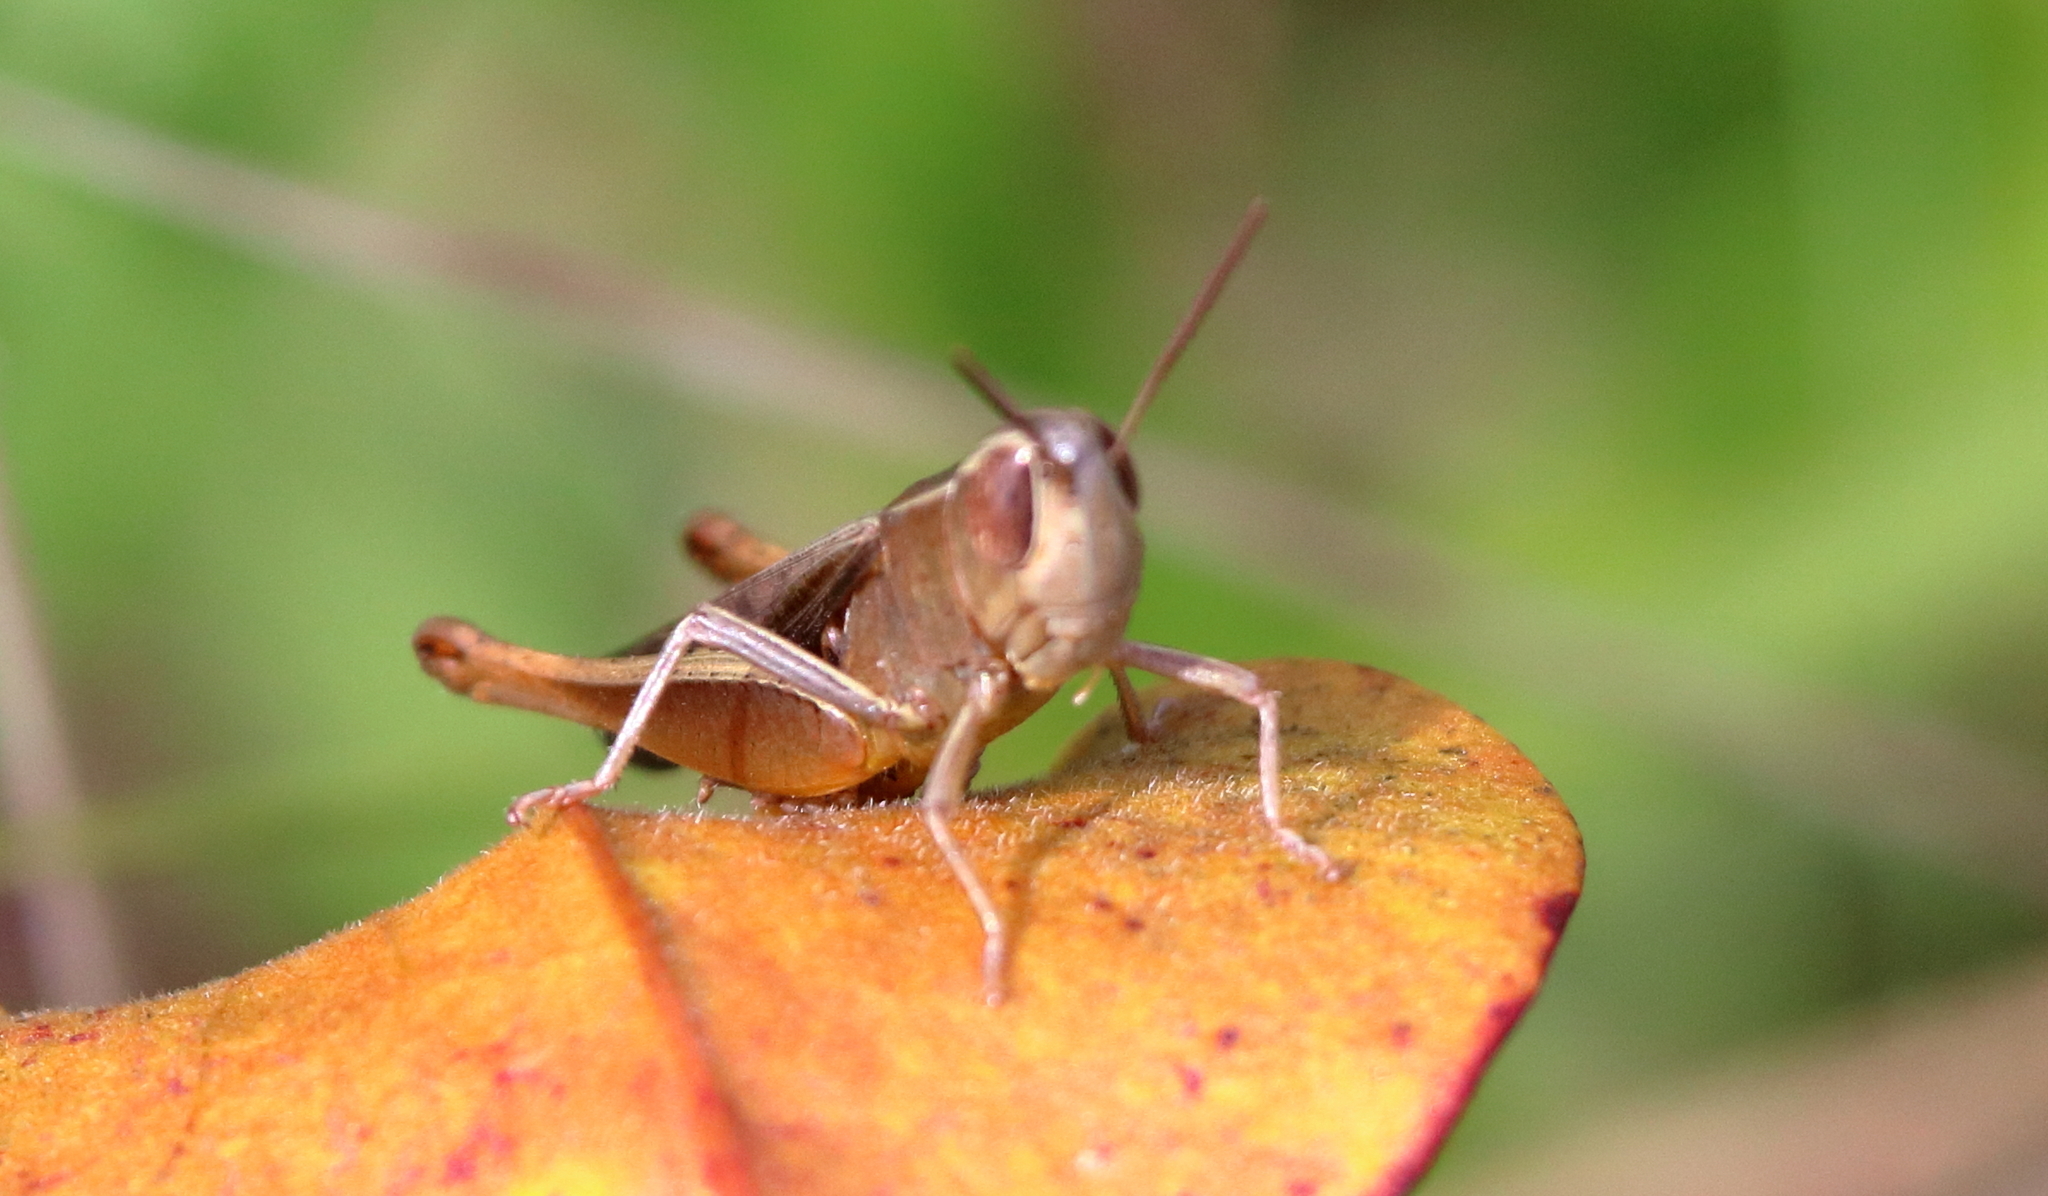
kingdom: Animalia
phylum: Arthropoda
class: Insecta
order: Orthoptera
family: Acrididae
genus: Amblytropidia
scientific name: Amblytropidia mysteca
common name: Brown winter grasshopper
